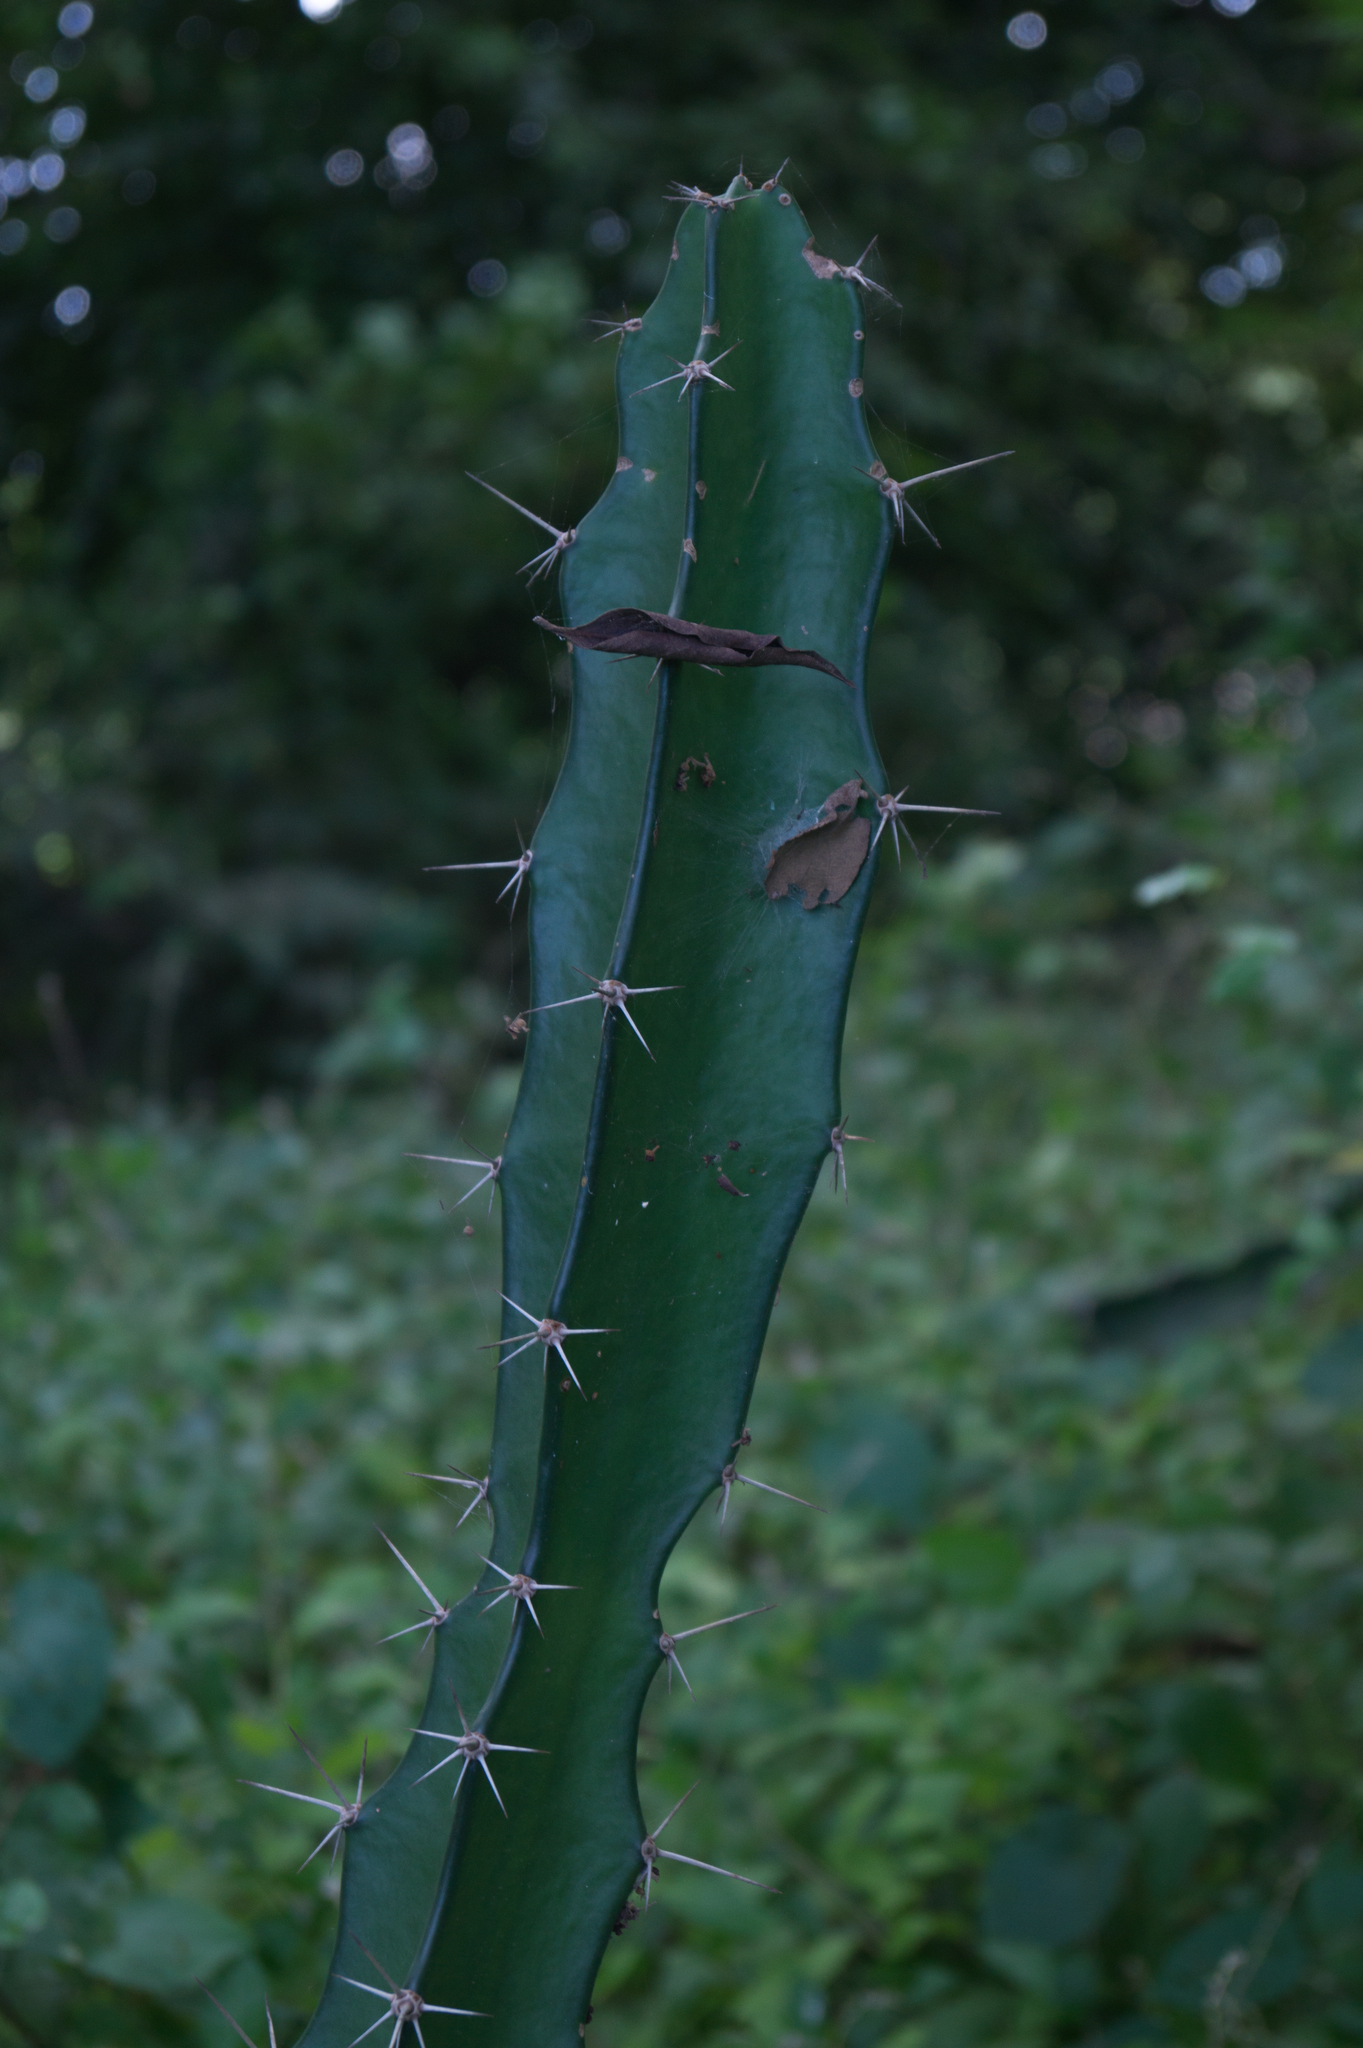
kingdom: Plantae
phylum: Tracheophyta
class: Magnoliopsida
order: Caryophyllales
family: Cactaceae
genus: Acanthocereus
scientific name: Acanthocereus tetragonus
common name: Triangle cactus
